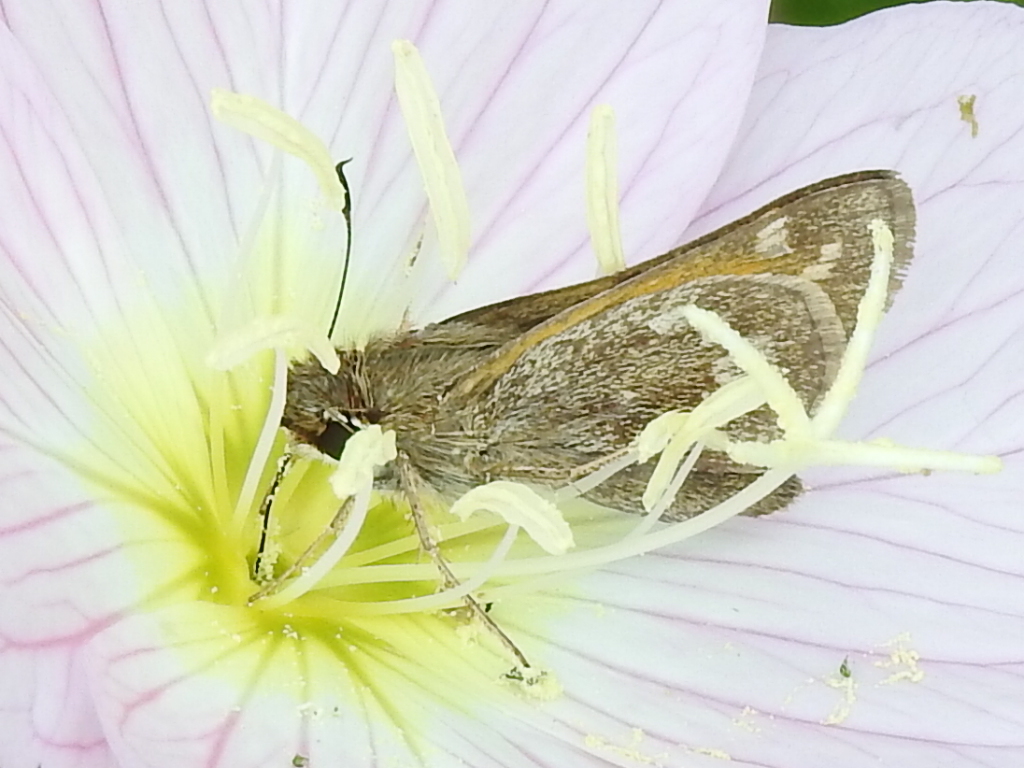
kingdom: Animalia
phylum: Arthropoda
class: Insecta
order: Lepidoptera
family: Hesperiidae
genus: Atalopedes
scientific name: Atalopedes
